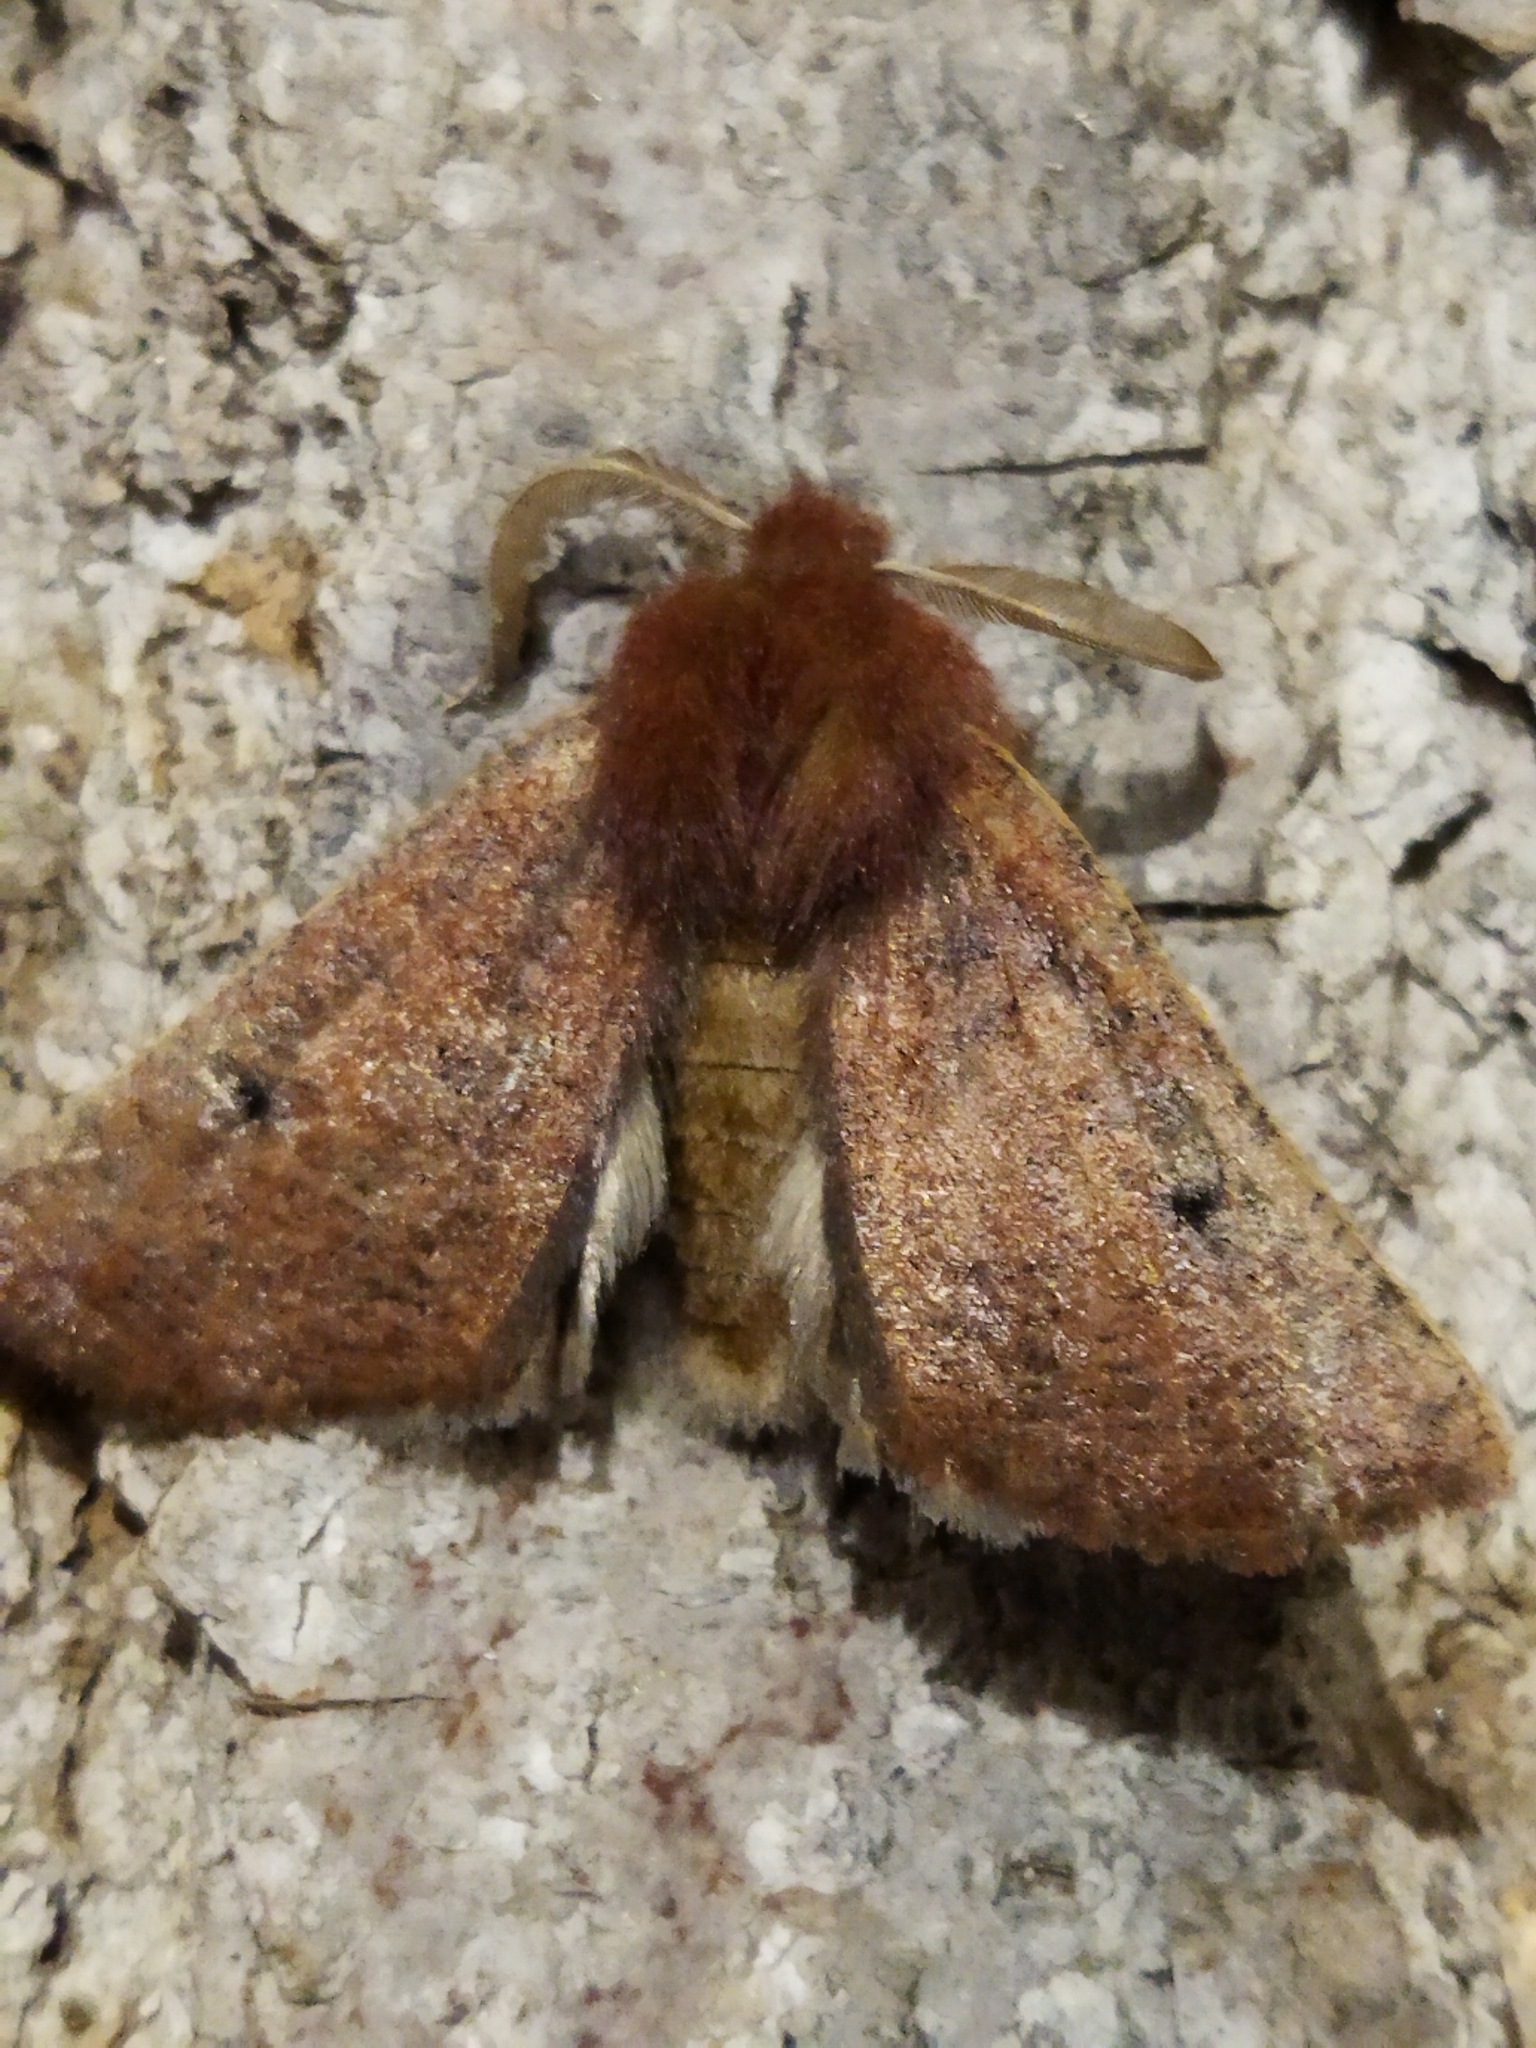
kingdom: Animalia
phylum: Arthropoda
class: Insecta
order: Lepidoptera
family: Geometridae
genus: Dasycorsa
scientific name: Dasycorsa modesta
